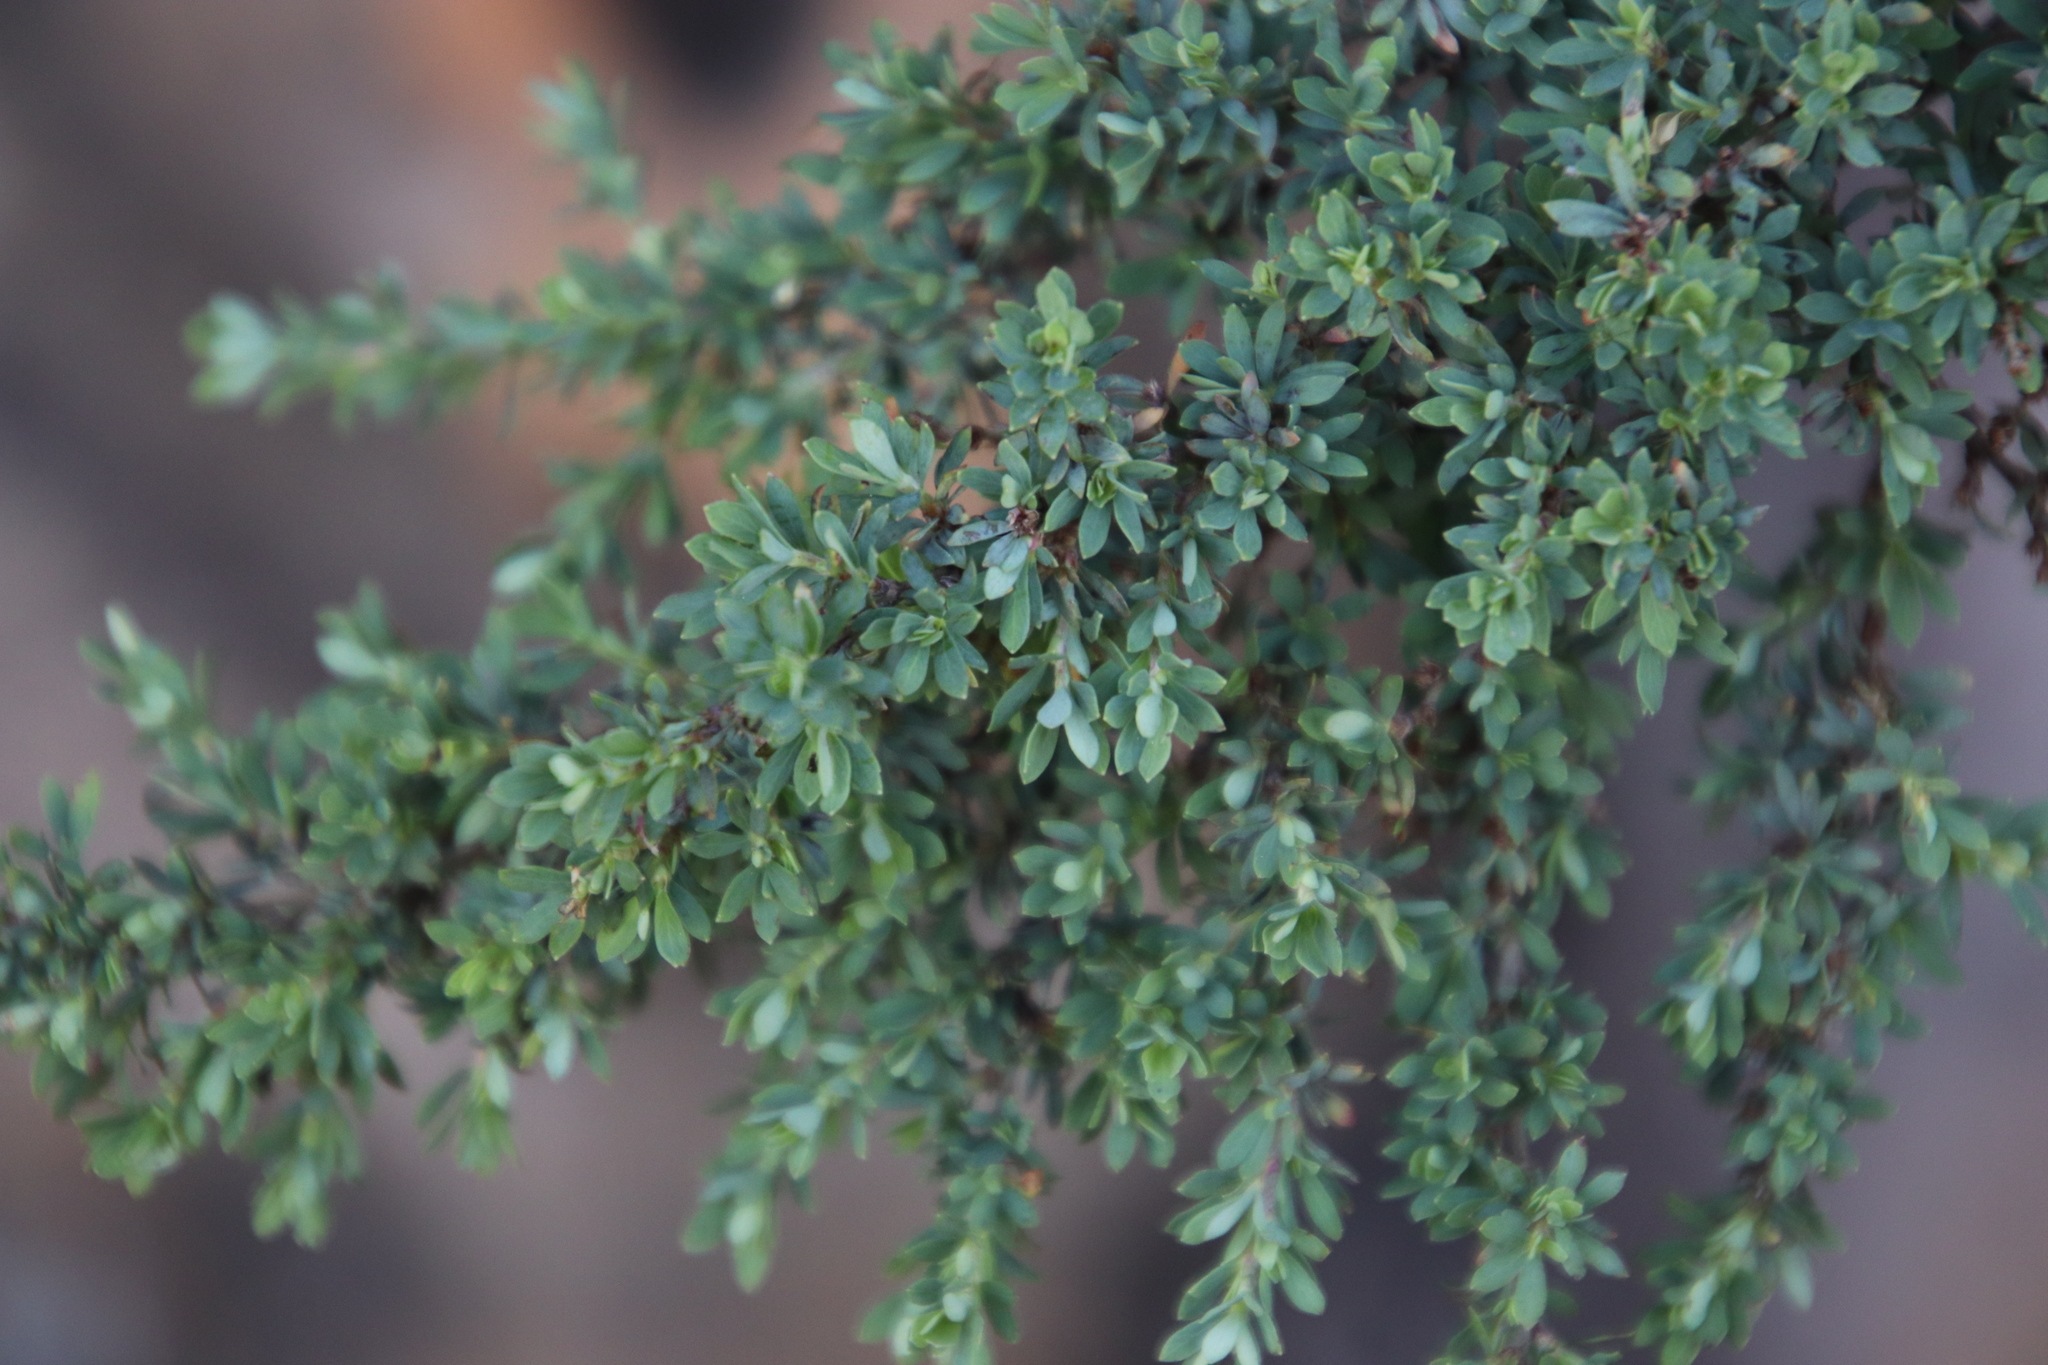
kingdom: Plantae
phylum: Tracheophyta
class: Magnoliopsida
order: Rosales
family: Rosaceae
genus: Cliffortia
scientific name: Cliffortia complanata
